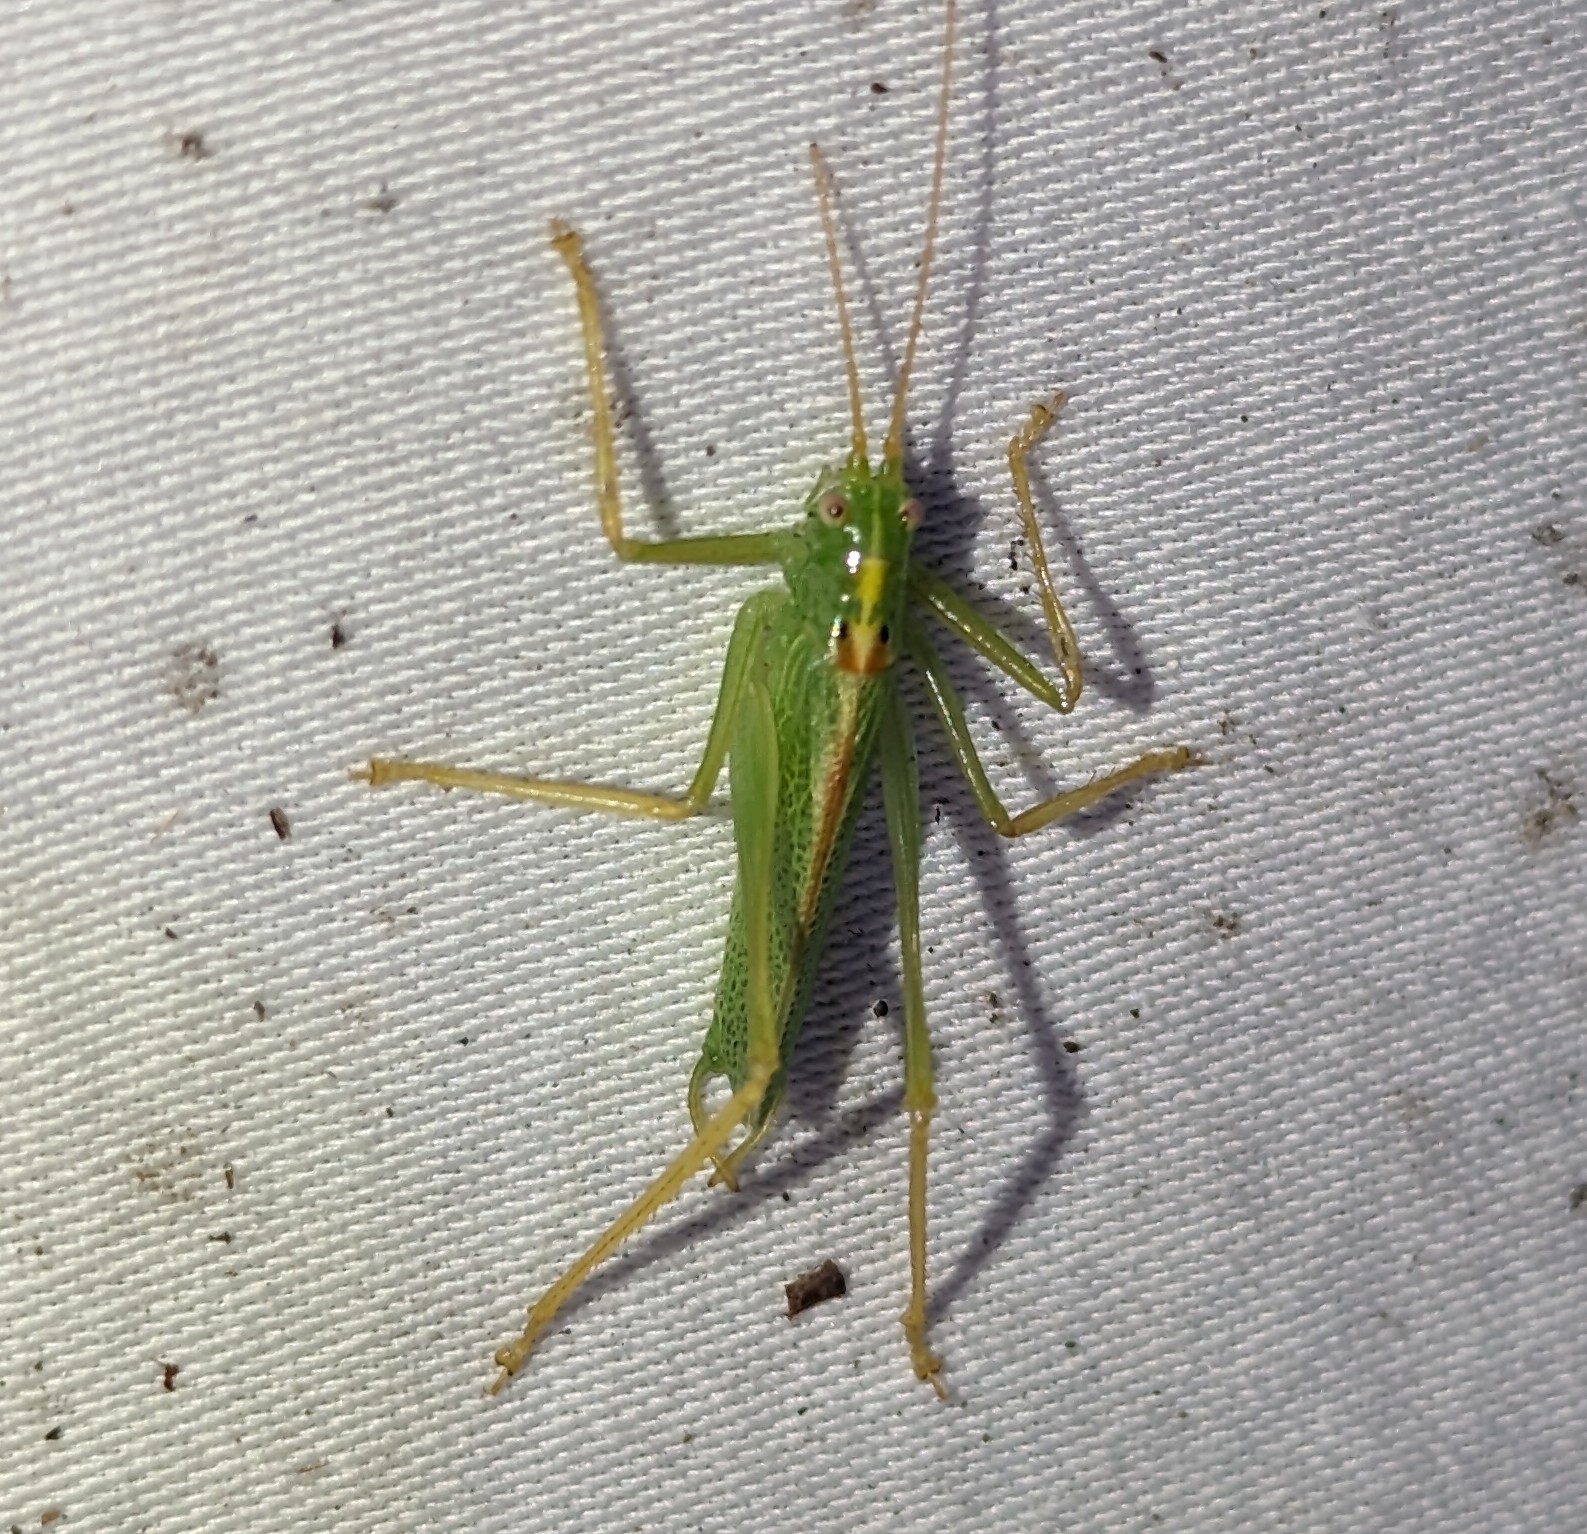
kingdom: Animalia
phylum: Arthropoda
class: Insecta
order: Orthoptera
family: Tettigoniidae
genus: Meconema
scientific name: Meconema thalassinum
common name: Oak bush-cricket
